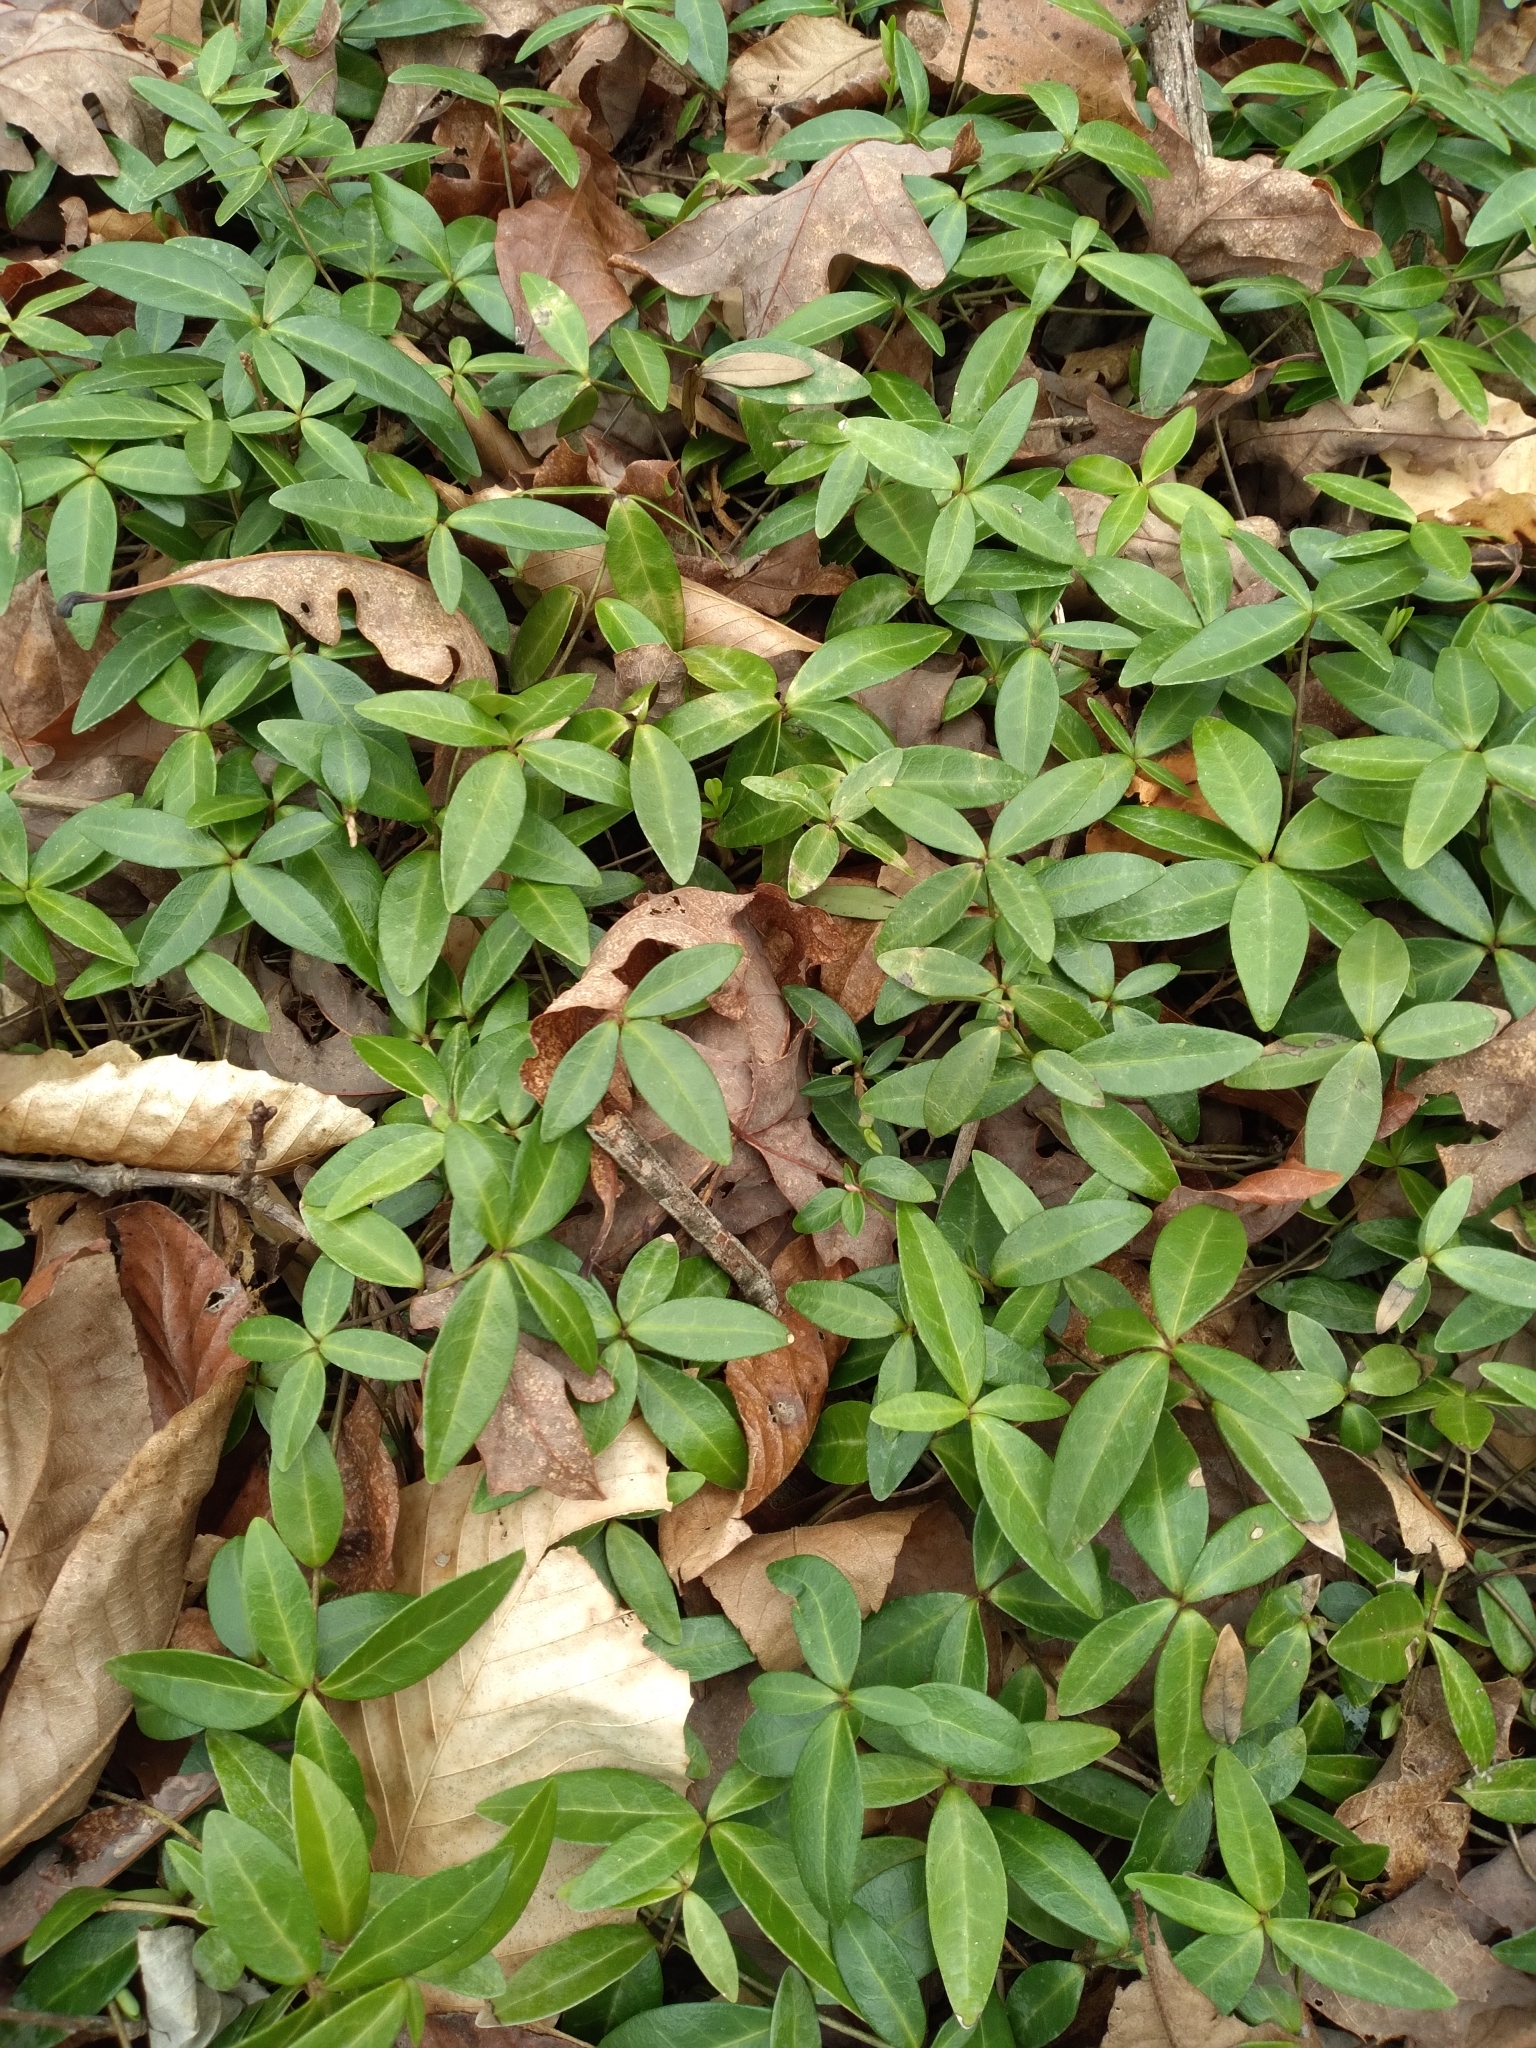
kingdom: Plantae
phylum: Tracheophyta
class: Magnoliopsida
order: Gentianales
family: Apocynaceae
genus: Vinca
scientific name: Vinca minor
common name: Lesser periwinkle
